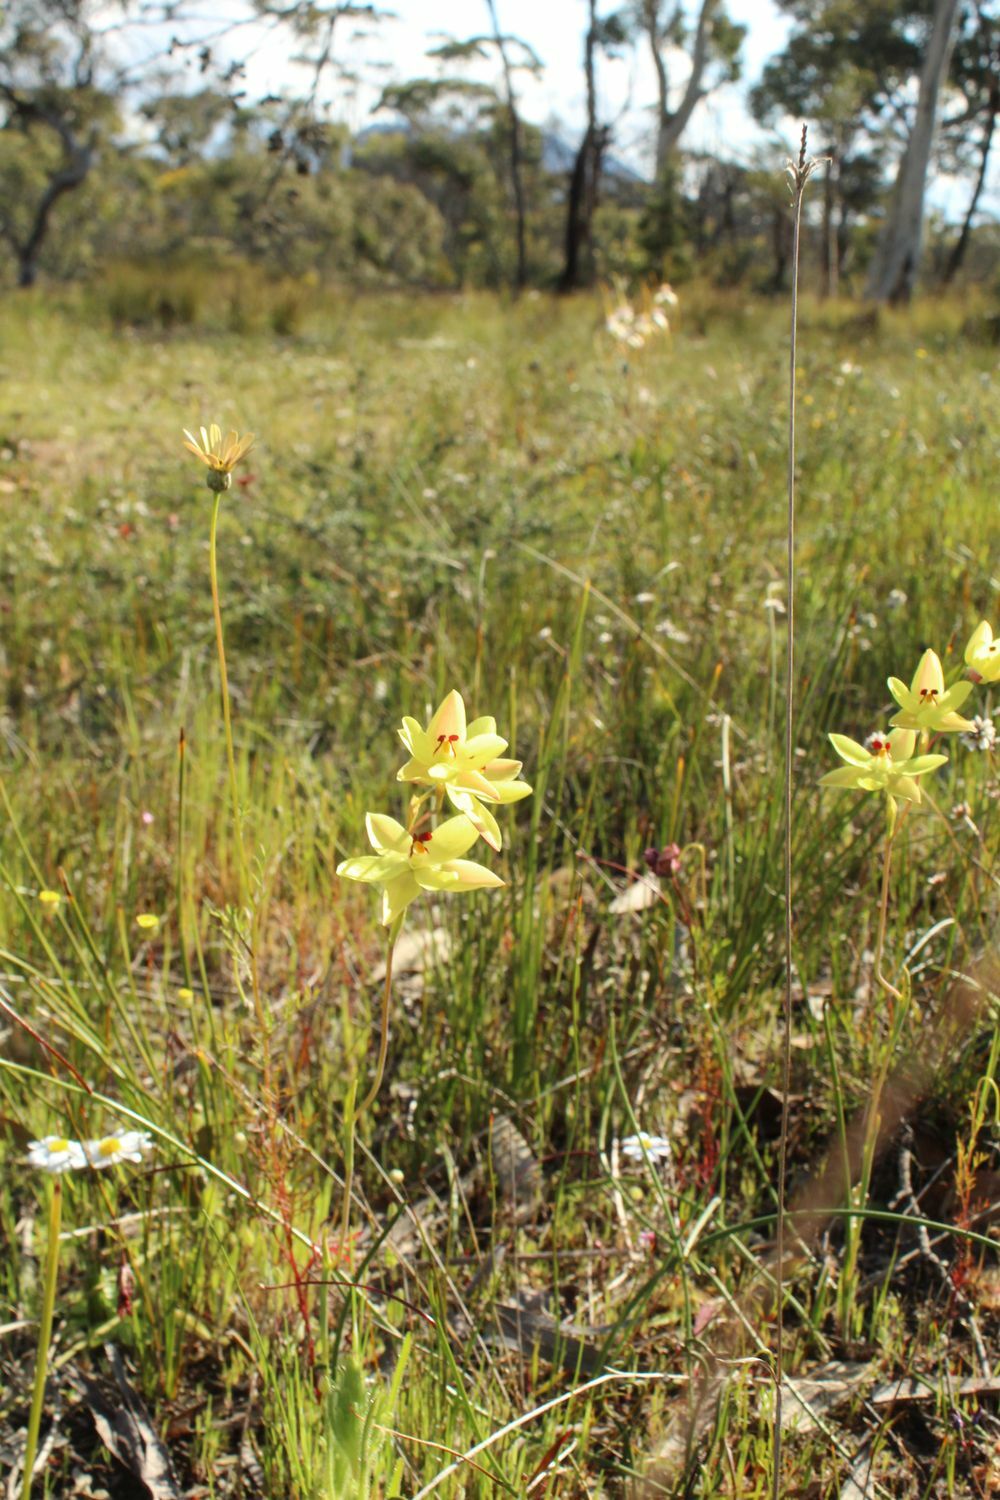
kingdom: Plantae
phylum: Tracheophyta
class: Liliopsida
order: Asparagales
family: Orchidaceae
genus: Thelymitra
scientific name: Thelymitra antennifera
